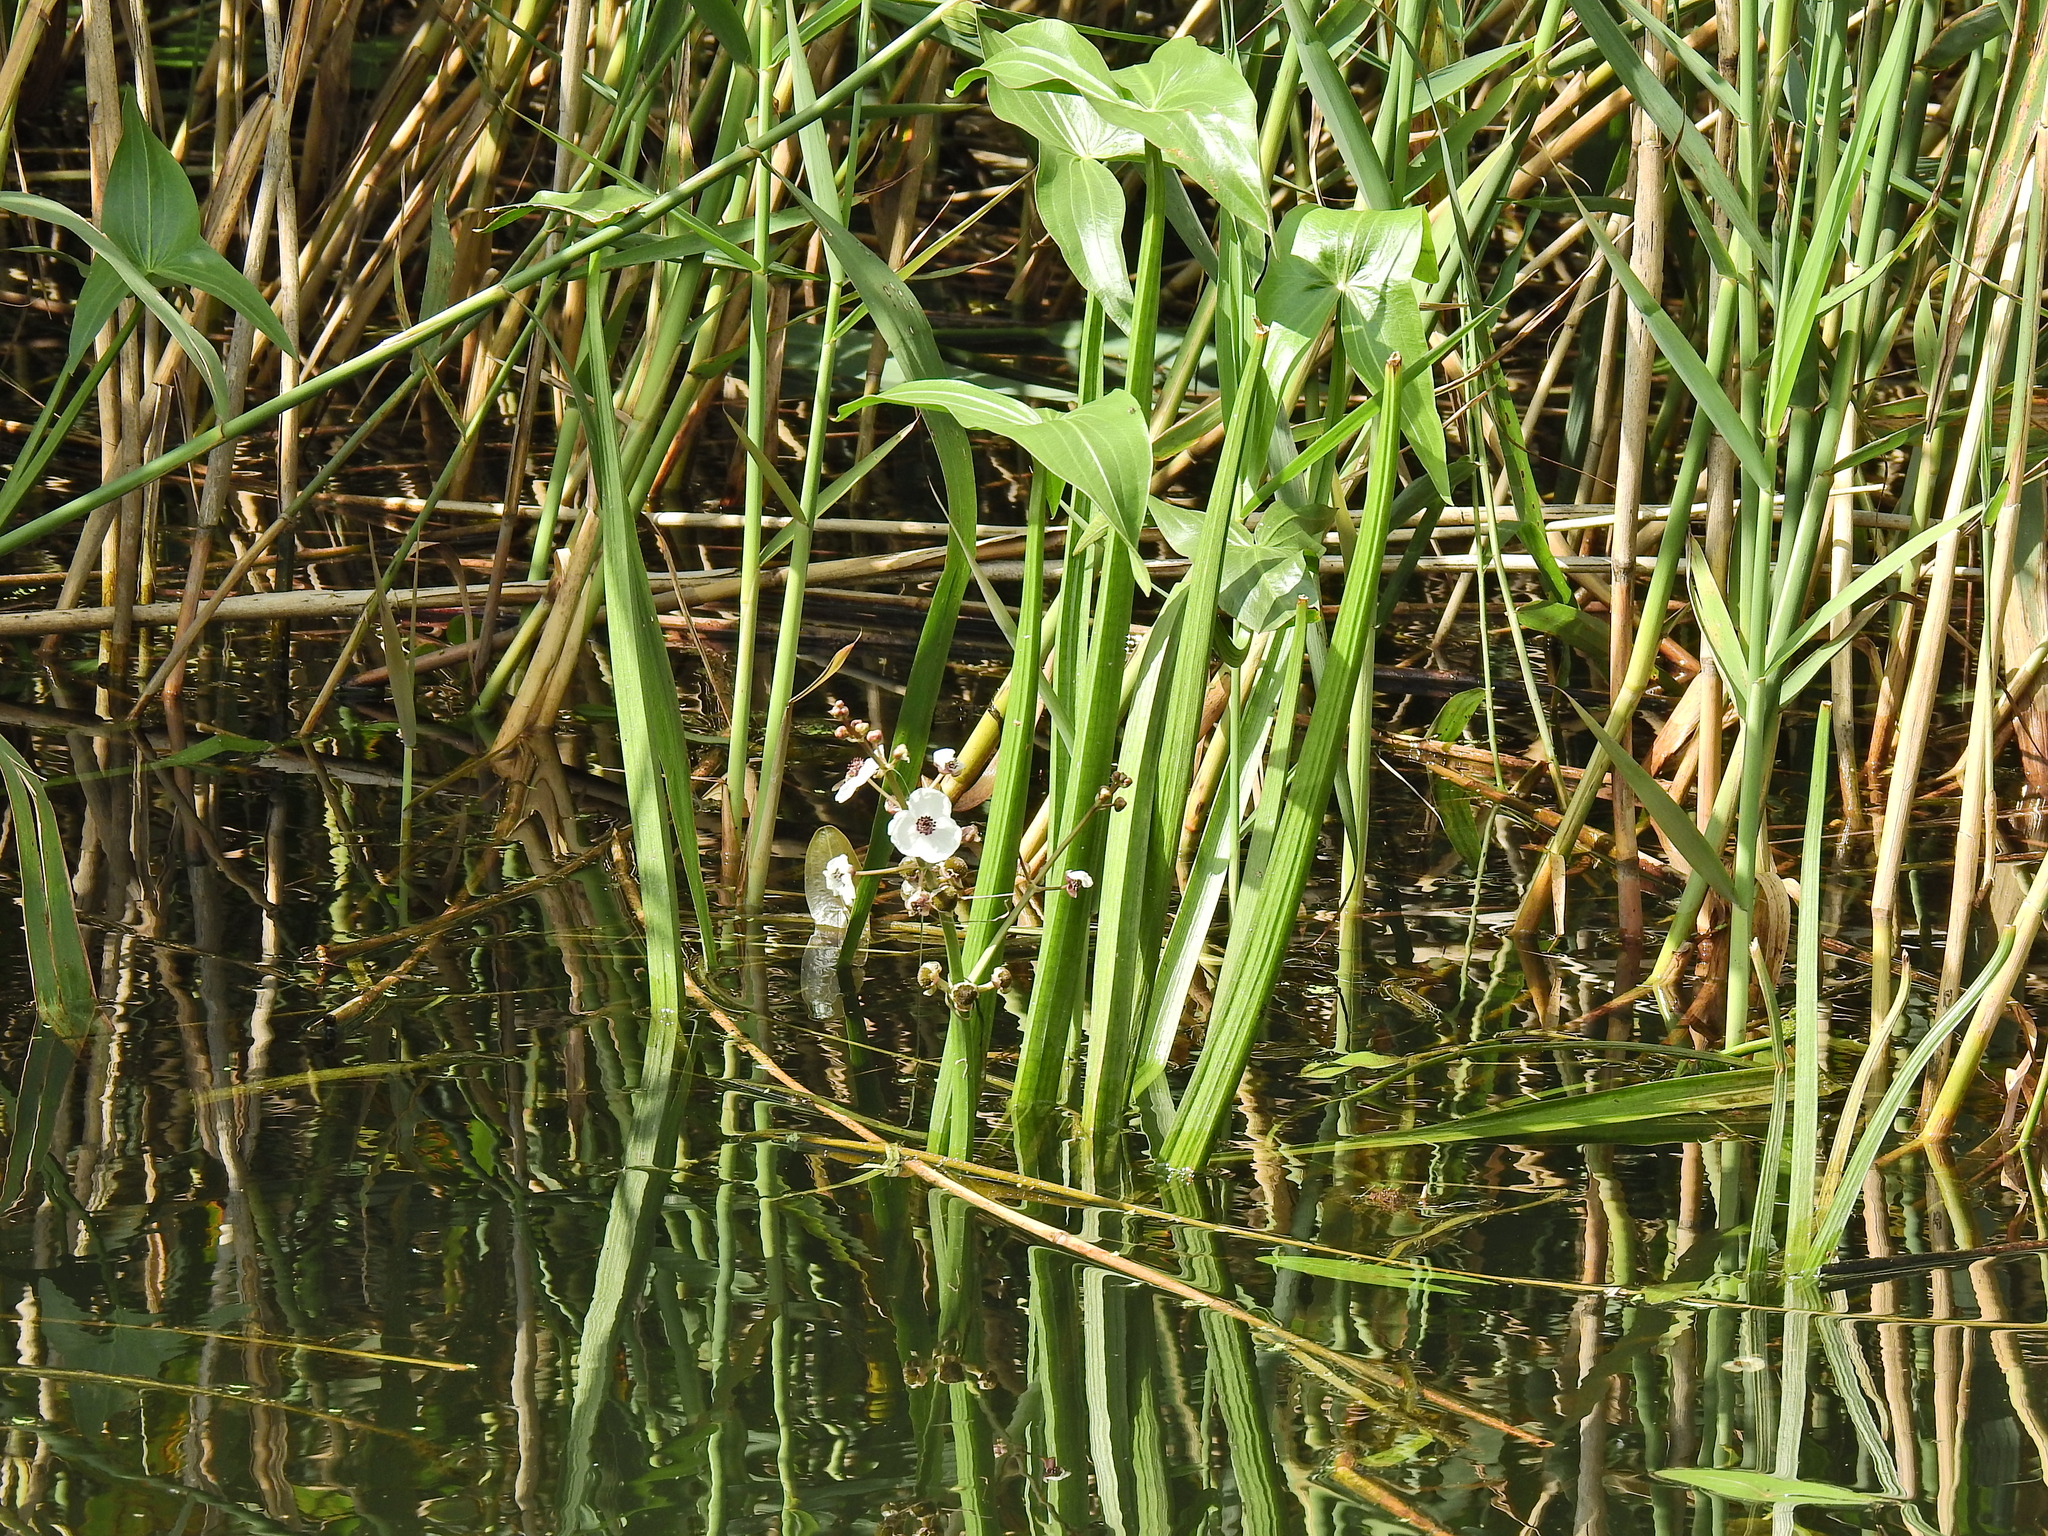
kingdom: Plantae
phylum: Tracheophyta
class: Liliopsida
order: Alismatales
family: Alismataceae
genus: Sagittaria
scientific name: Sagittaria sagittifolia
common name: Arrowhead
